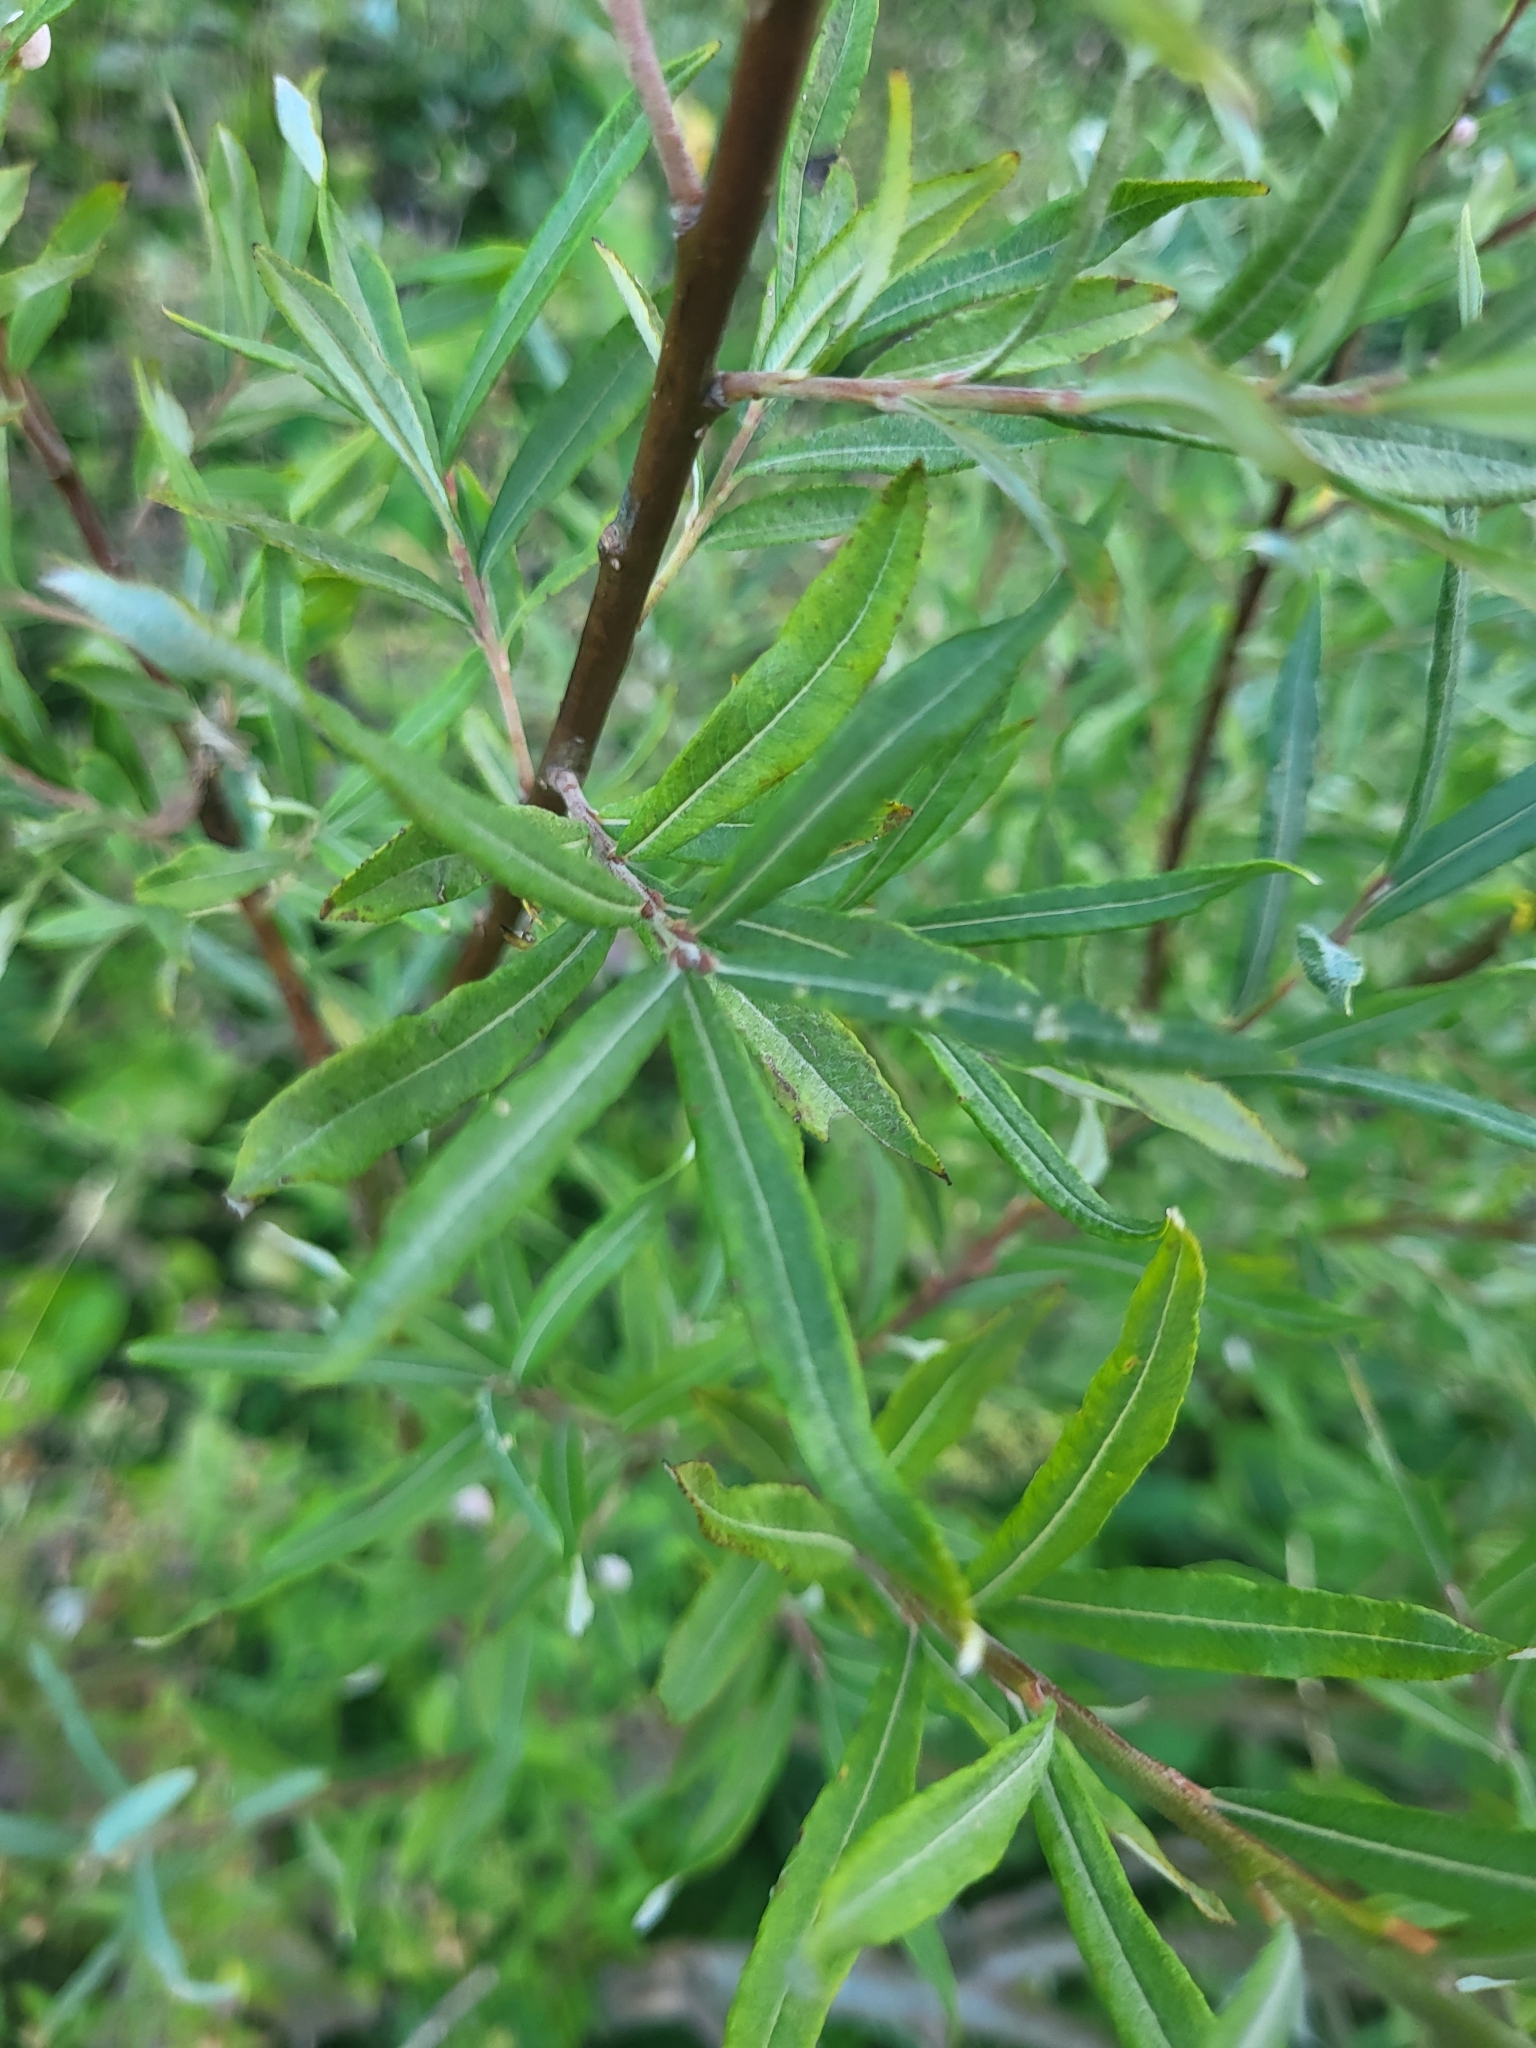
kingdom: Plantae
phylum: Tracheophyta
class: Magnoliopsida
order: Malpighiales
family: Salicaceae
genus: Salix
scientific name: Salix eleagnos
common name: Elaeagnus willow
